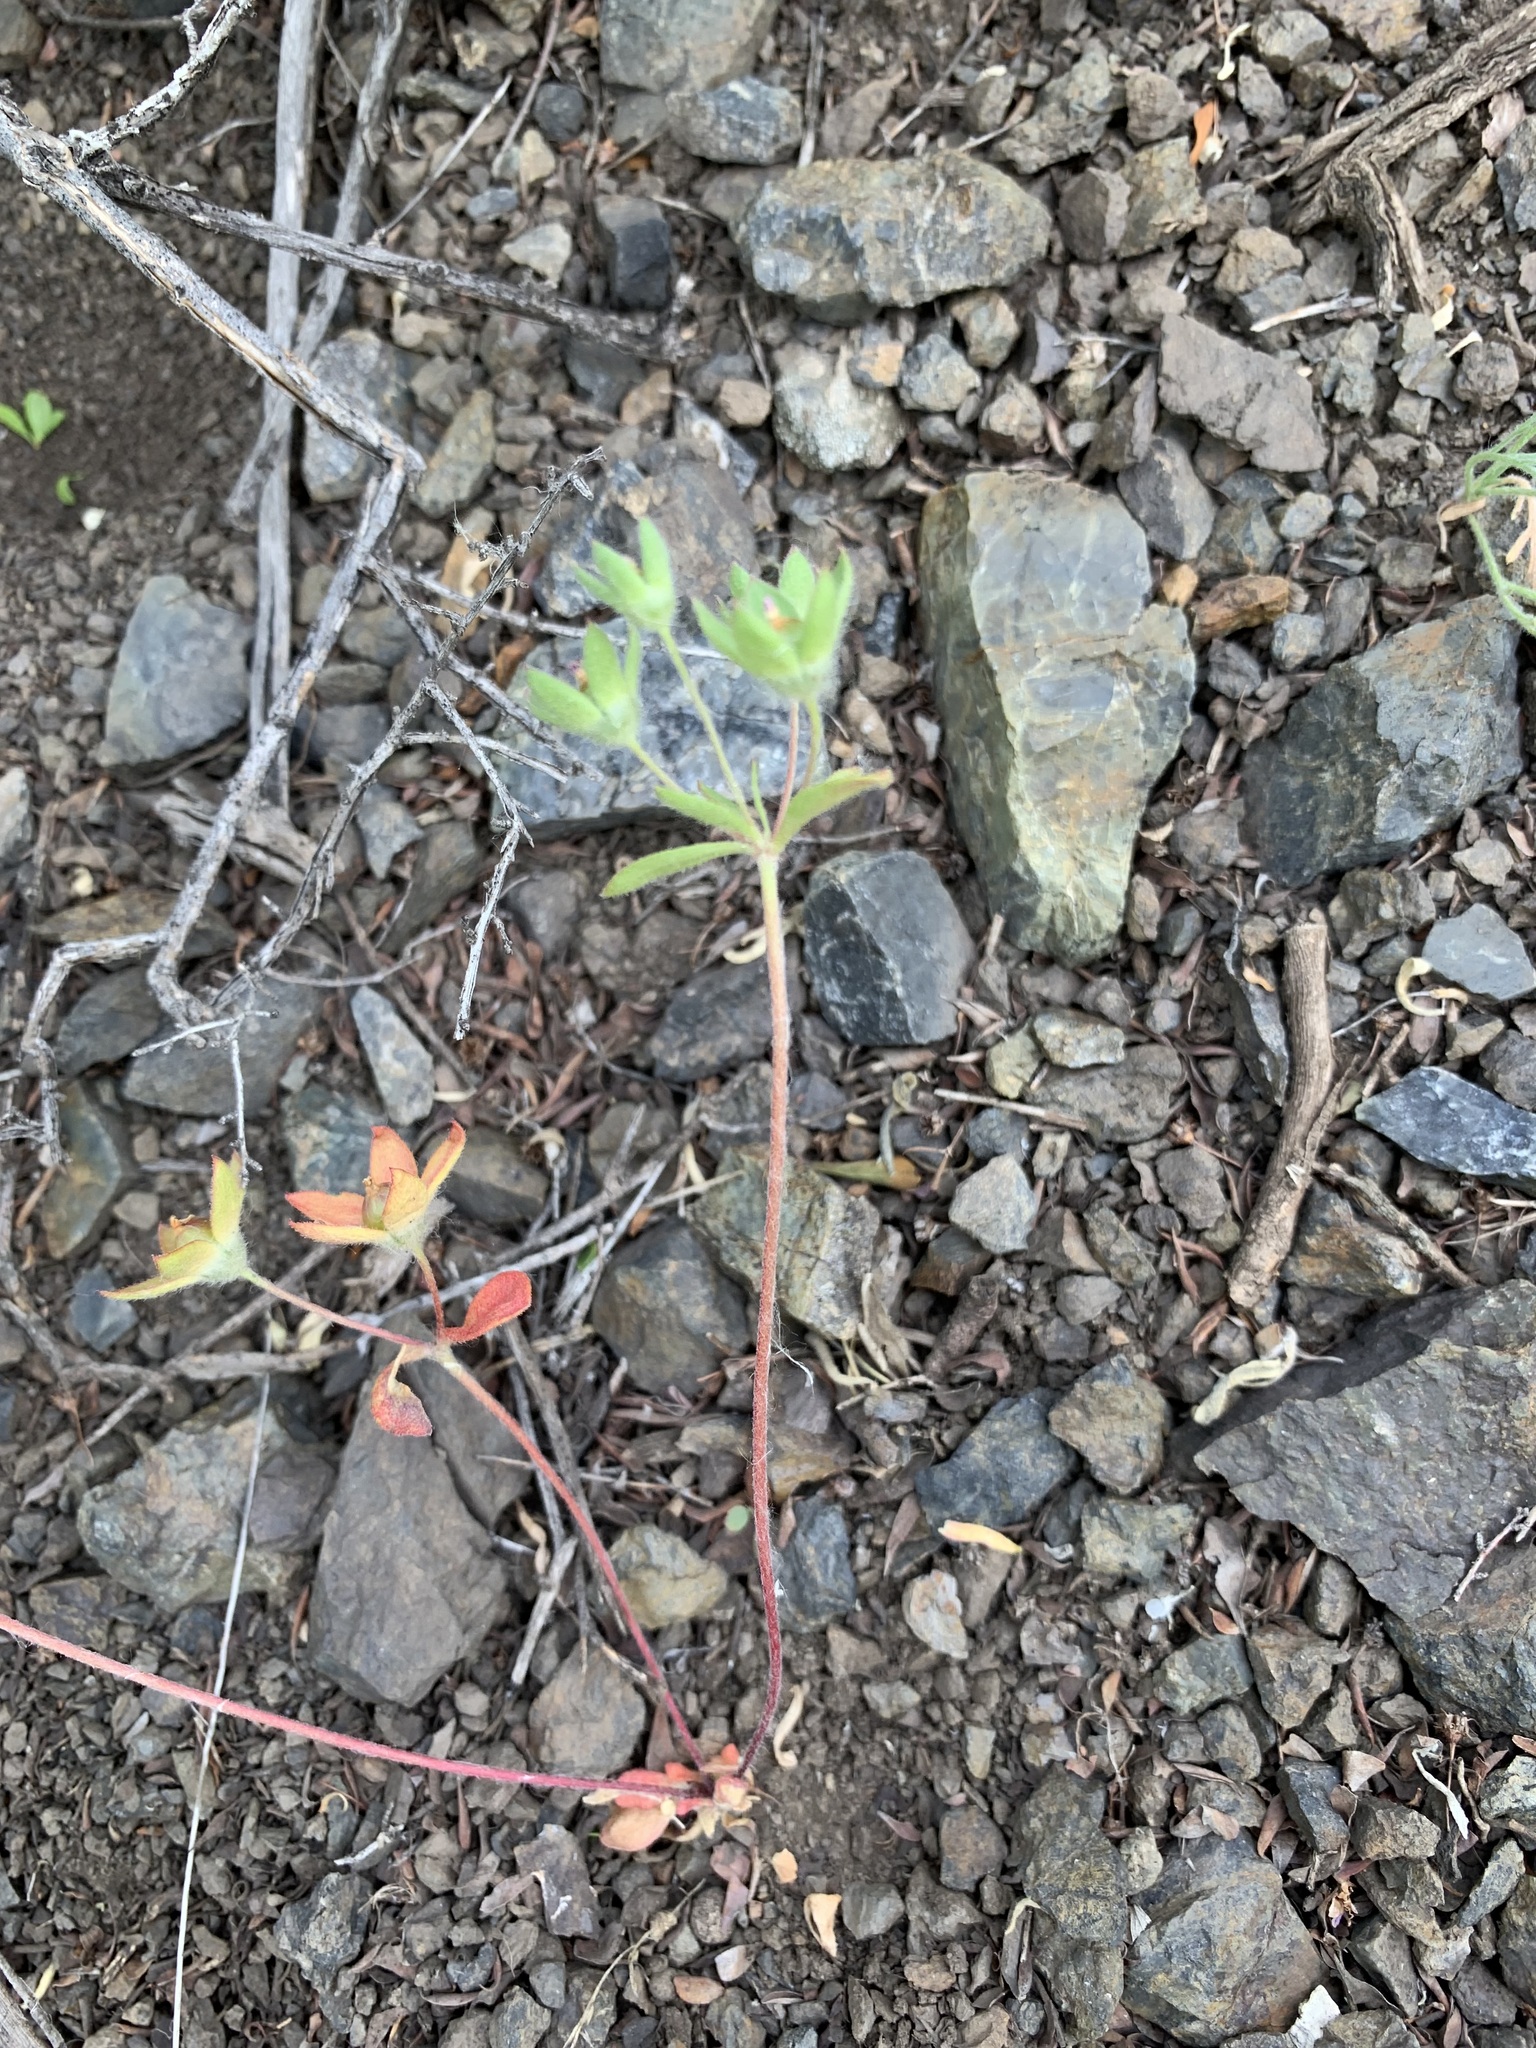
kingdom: Plantae
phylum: Tracheophyta
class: Magnoliopsida
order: Ericales
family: Primulaceae
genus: Androsace
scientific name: Androsace maxima
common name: Annual androsace
